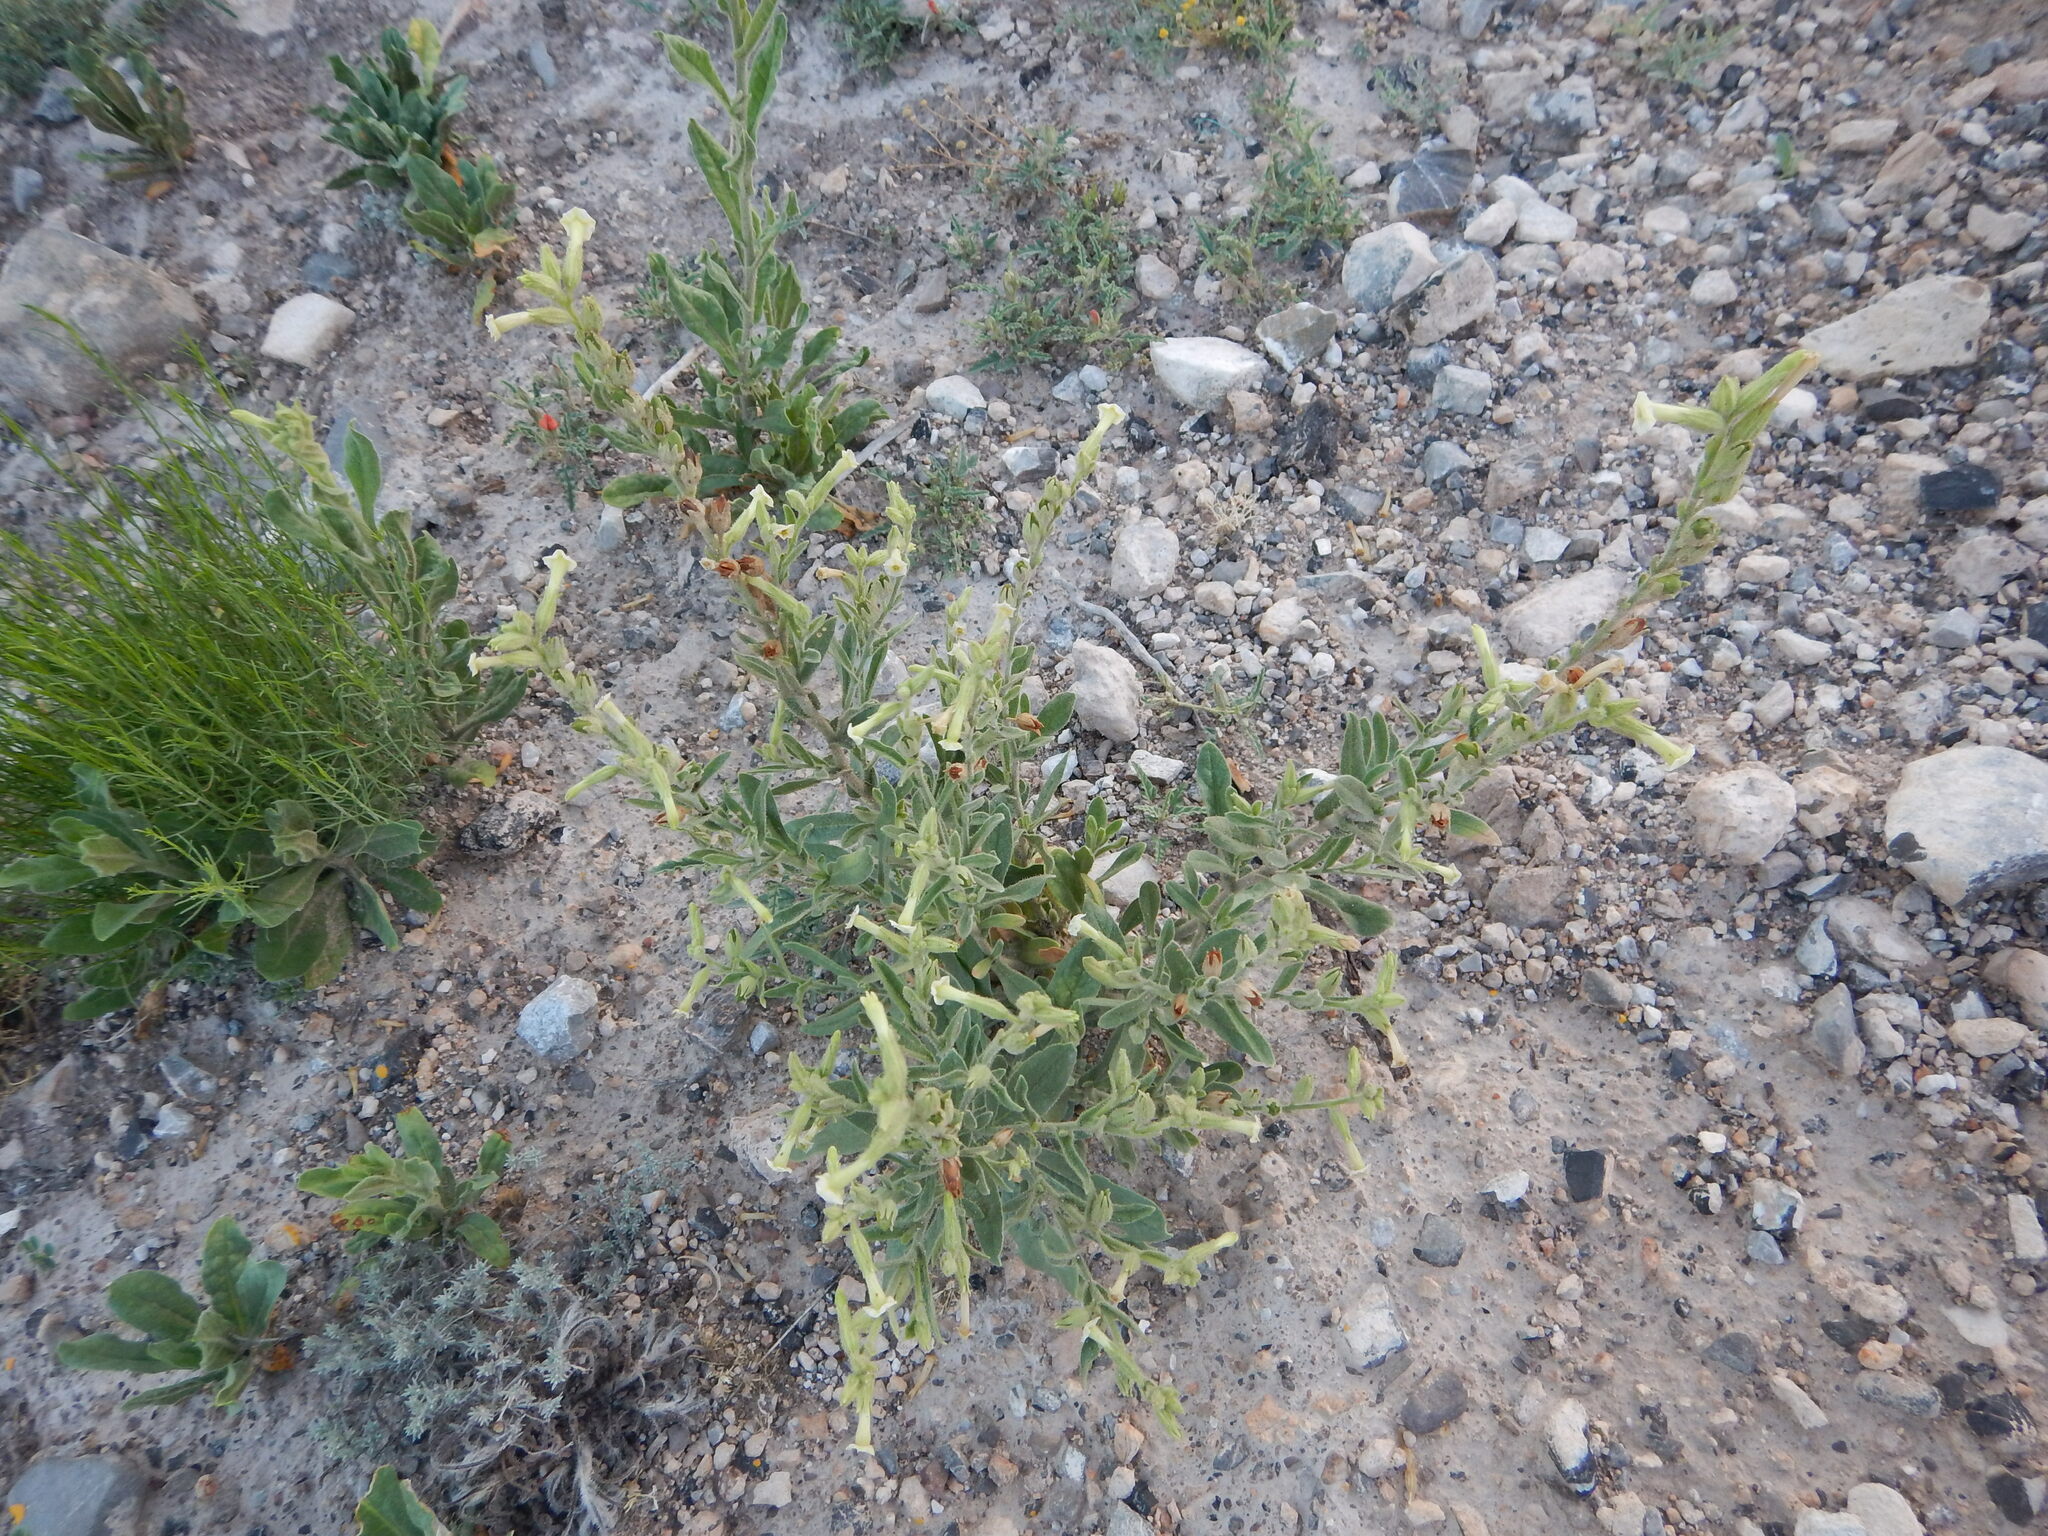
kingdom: Plantae
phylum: Tracheophyta
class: Magnoliopsida
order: Solanales
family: Solanaceae
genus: Nicotiana
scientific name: Nicotiana obtusifolia
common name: Desert tobacco
